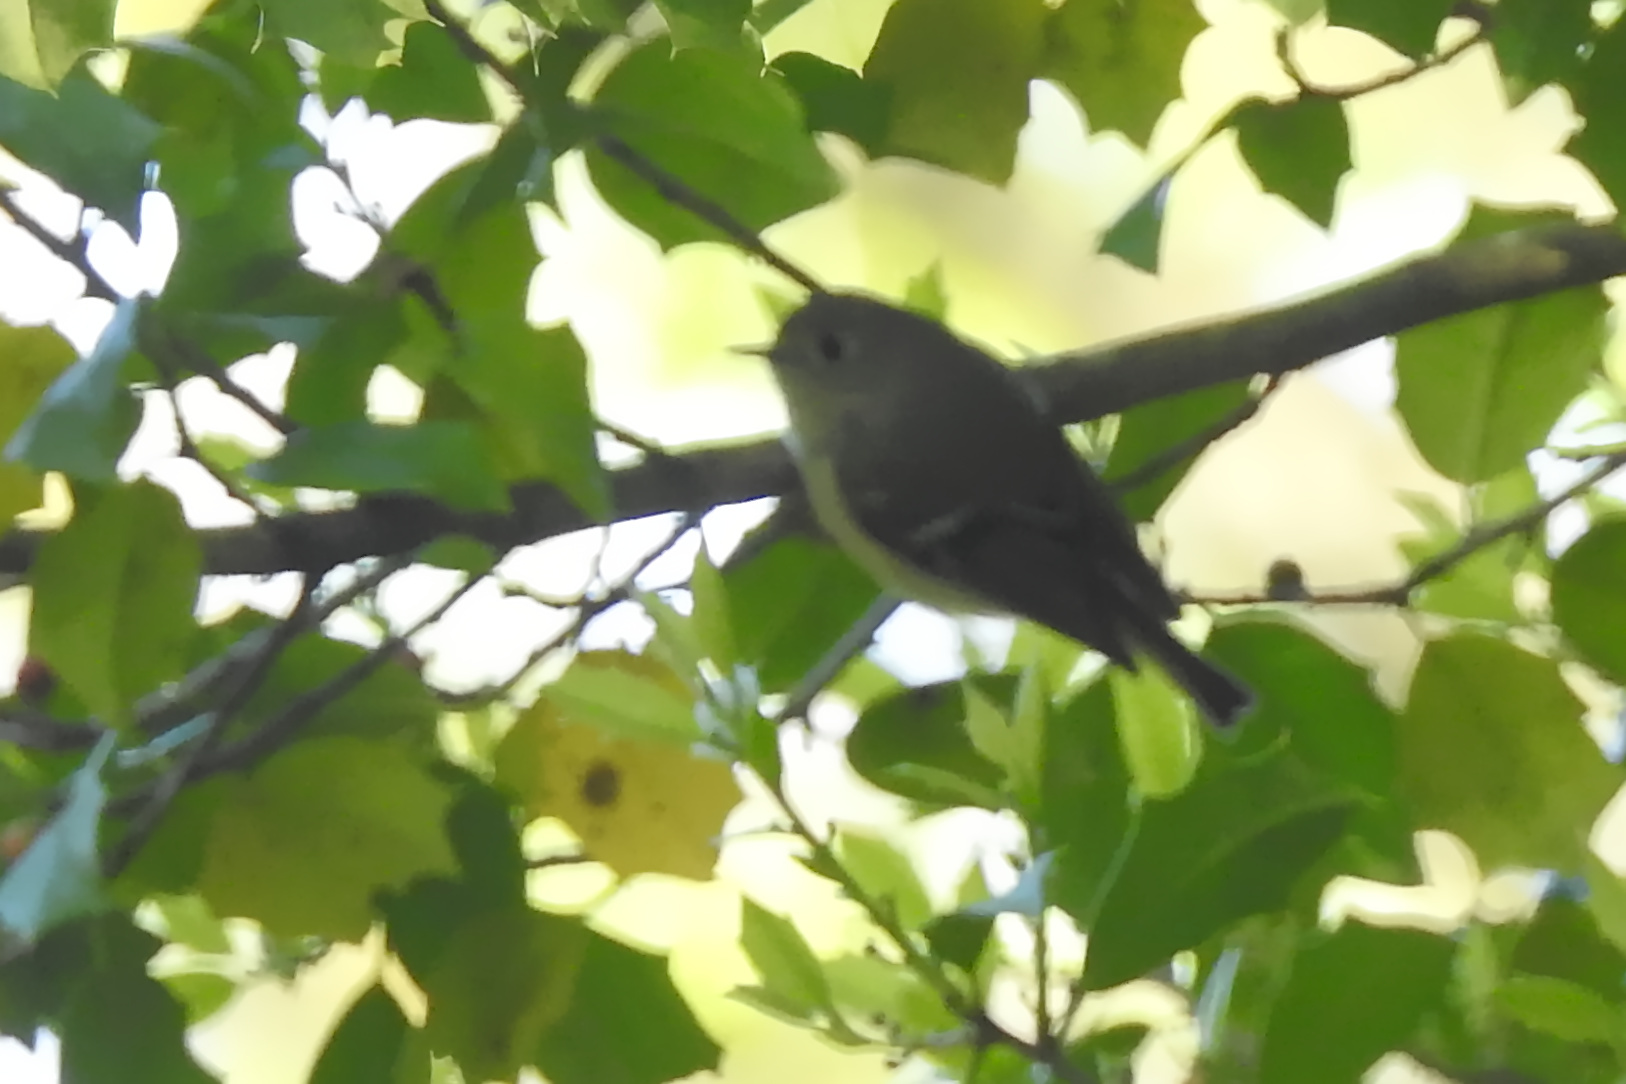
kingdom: Animalia
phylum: Chordata
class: Aves
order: Passeriformes
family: Regulidae
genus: Regulus
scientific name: Regulus calendula
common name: Ruby-crowned kinglet
